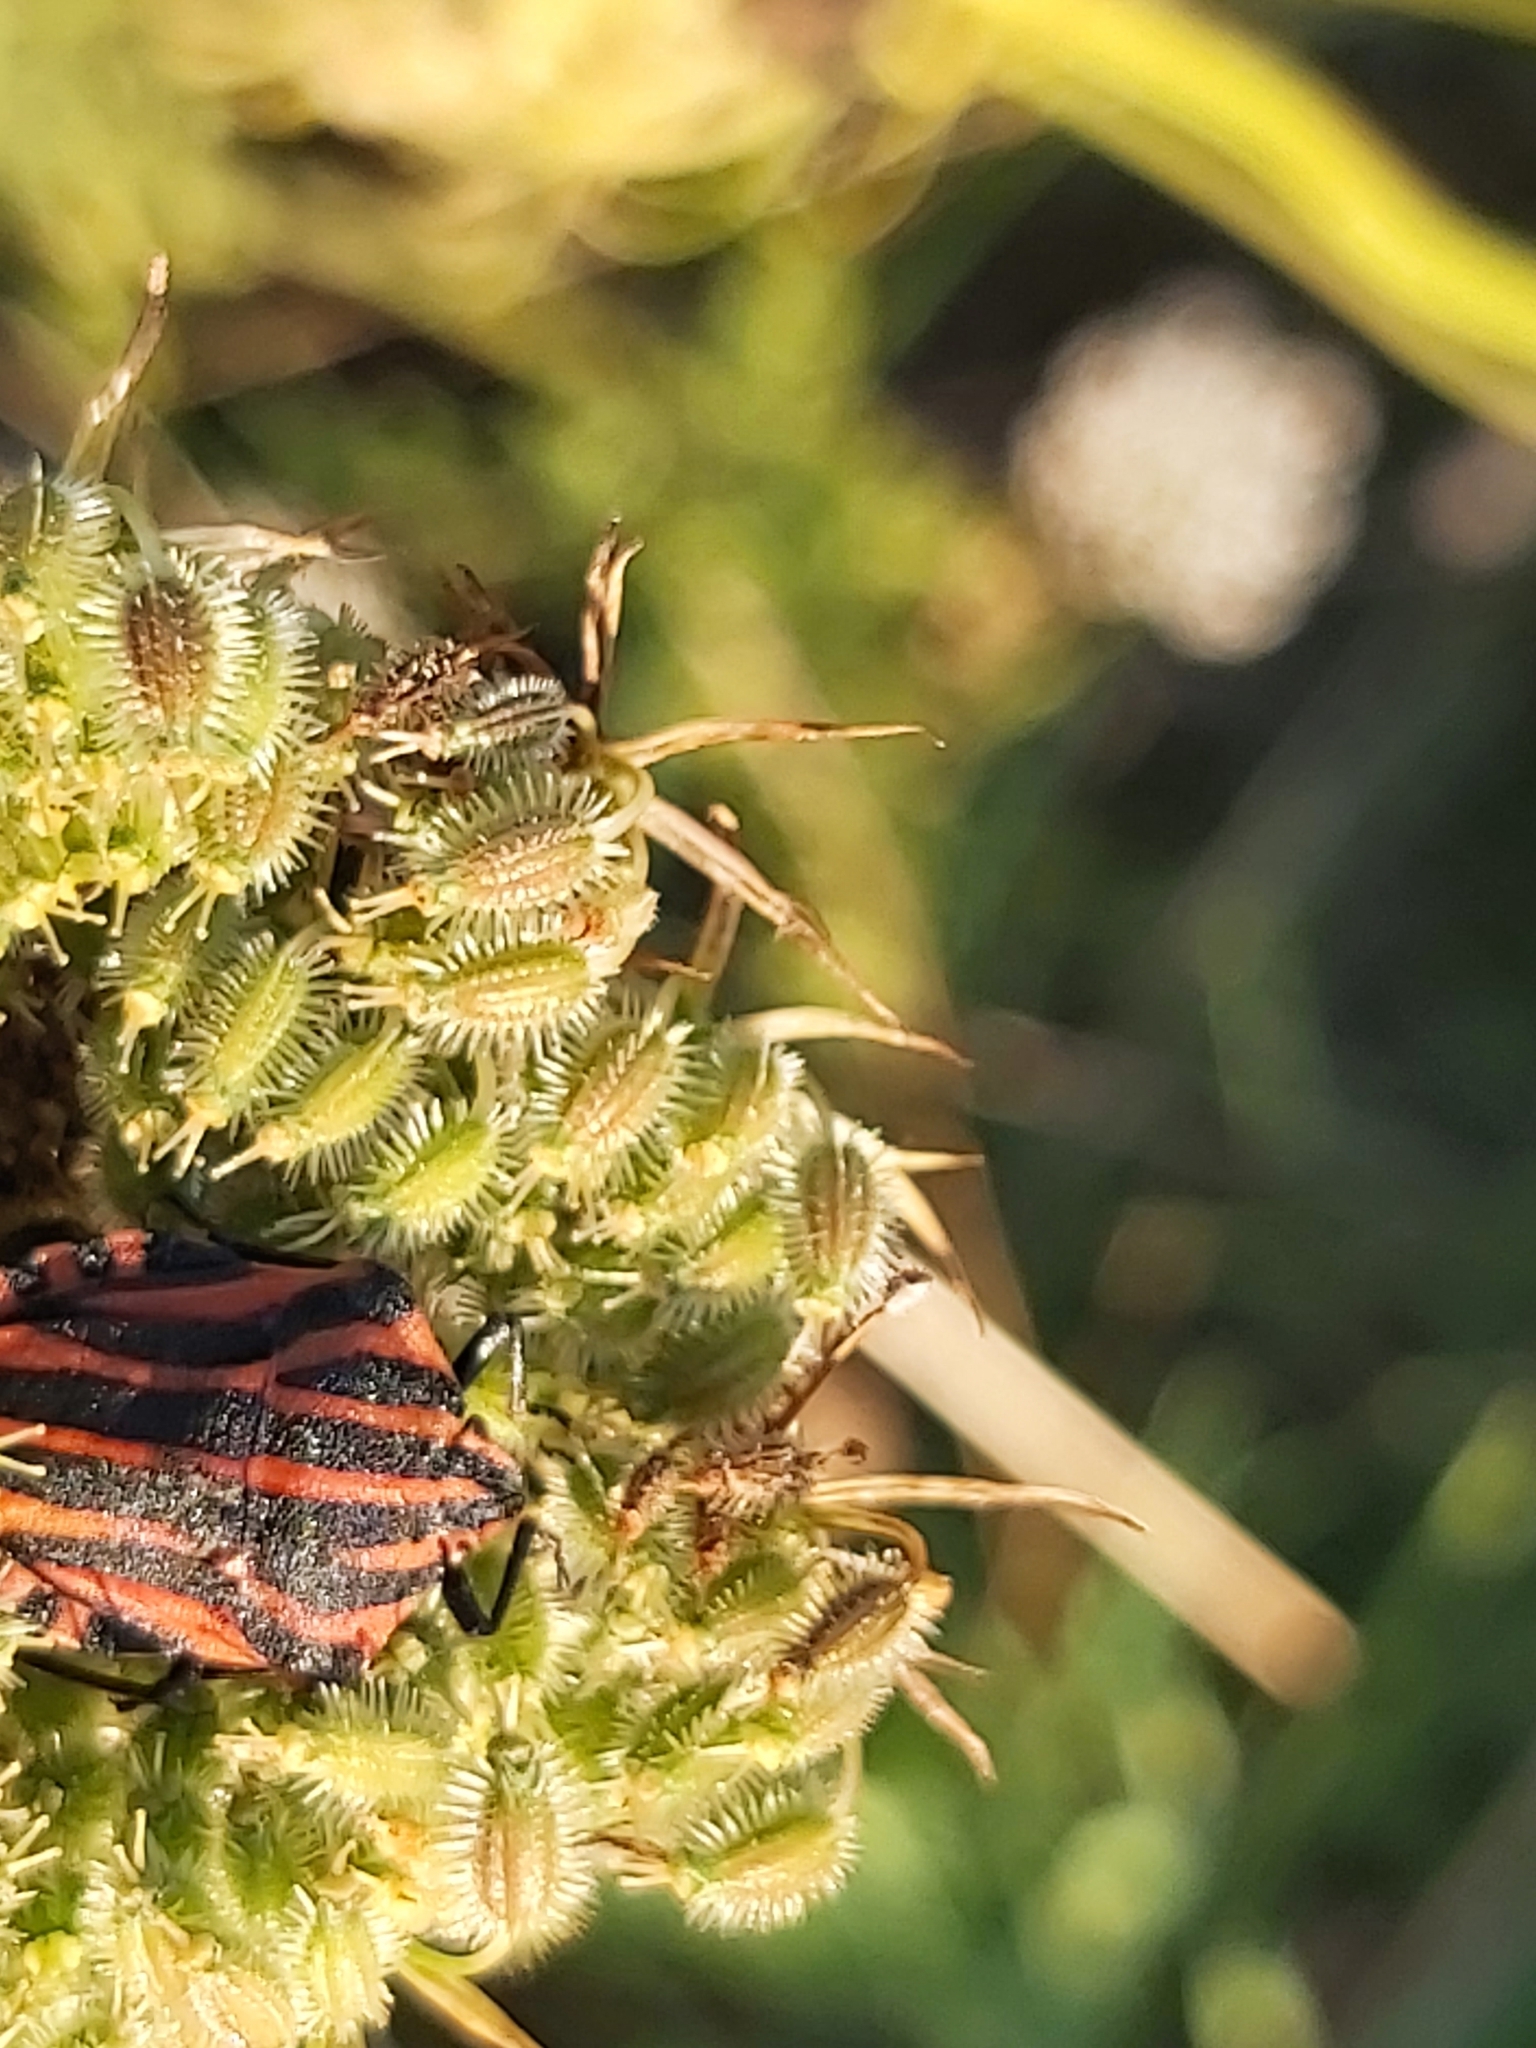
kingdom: Animalia
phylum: Arthropoda
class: Insecta
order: Hemiptera
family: Pentatomidae
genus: Graphosoma
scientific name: Graphosoma italicum
